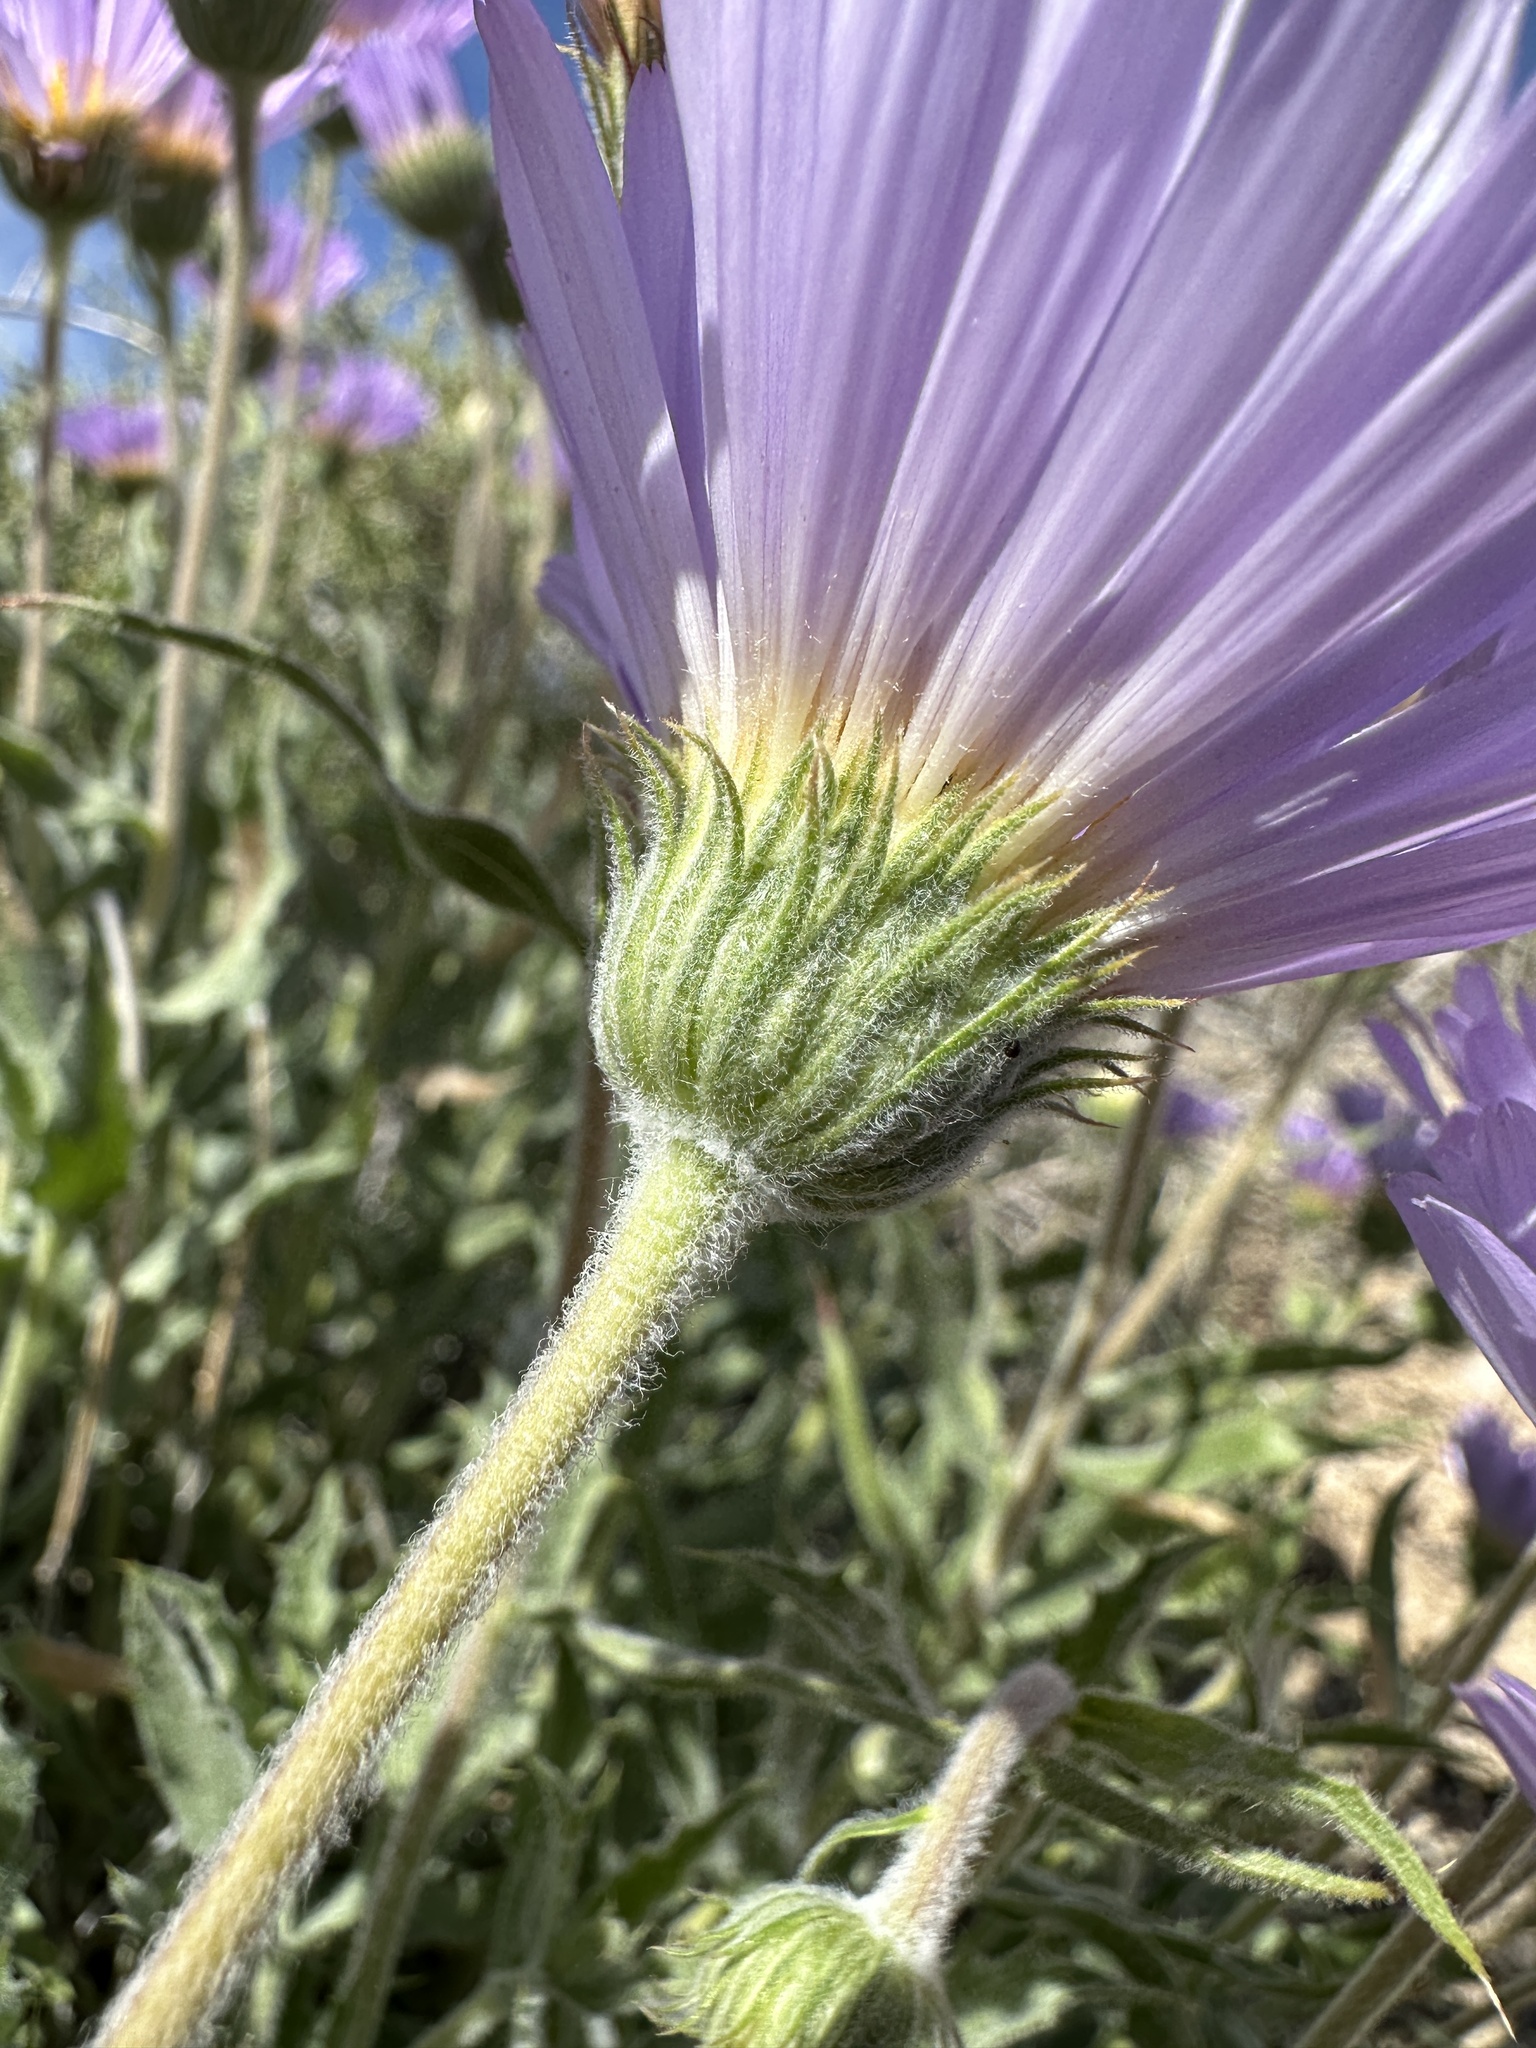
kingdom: Plantae
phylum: Tracheophyta
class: Magnoliopsida
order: Asterales
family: Asteraceae
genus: Xylorhiza
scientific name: Xylorhiza tortifolia
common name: Hurt-leaf woody-aster
